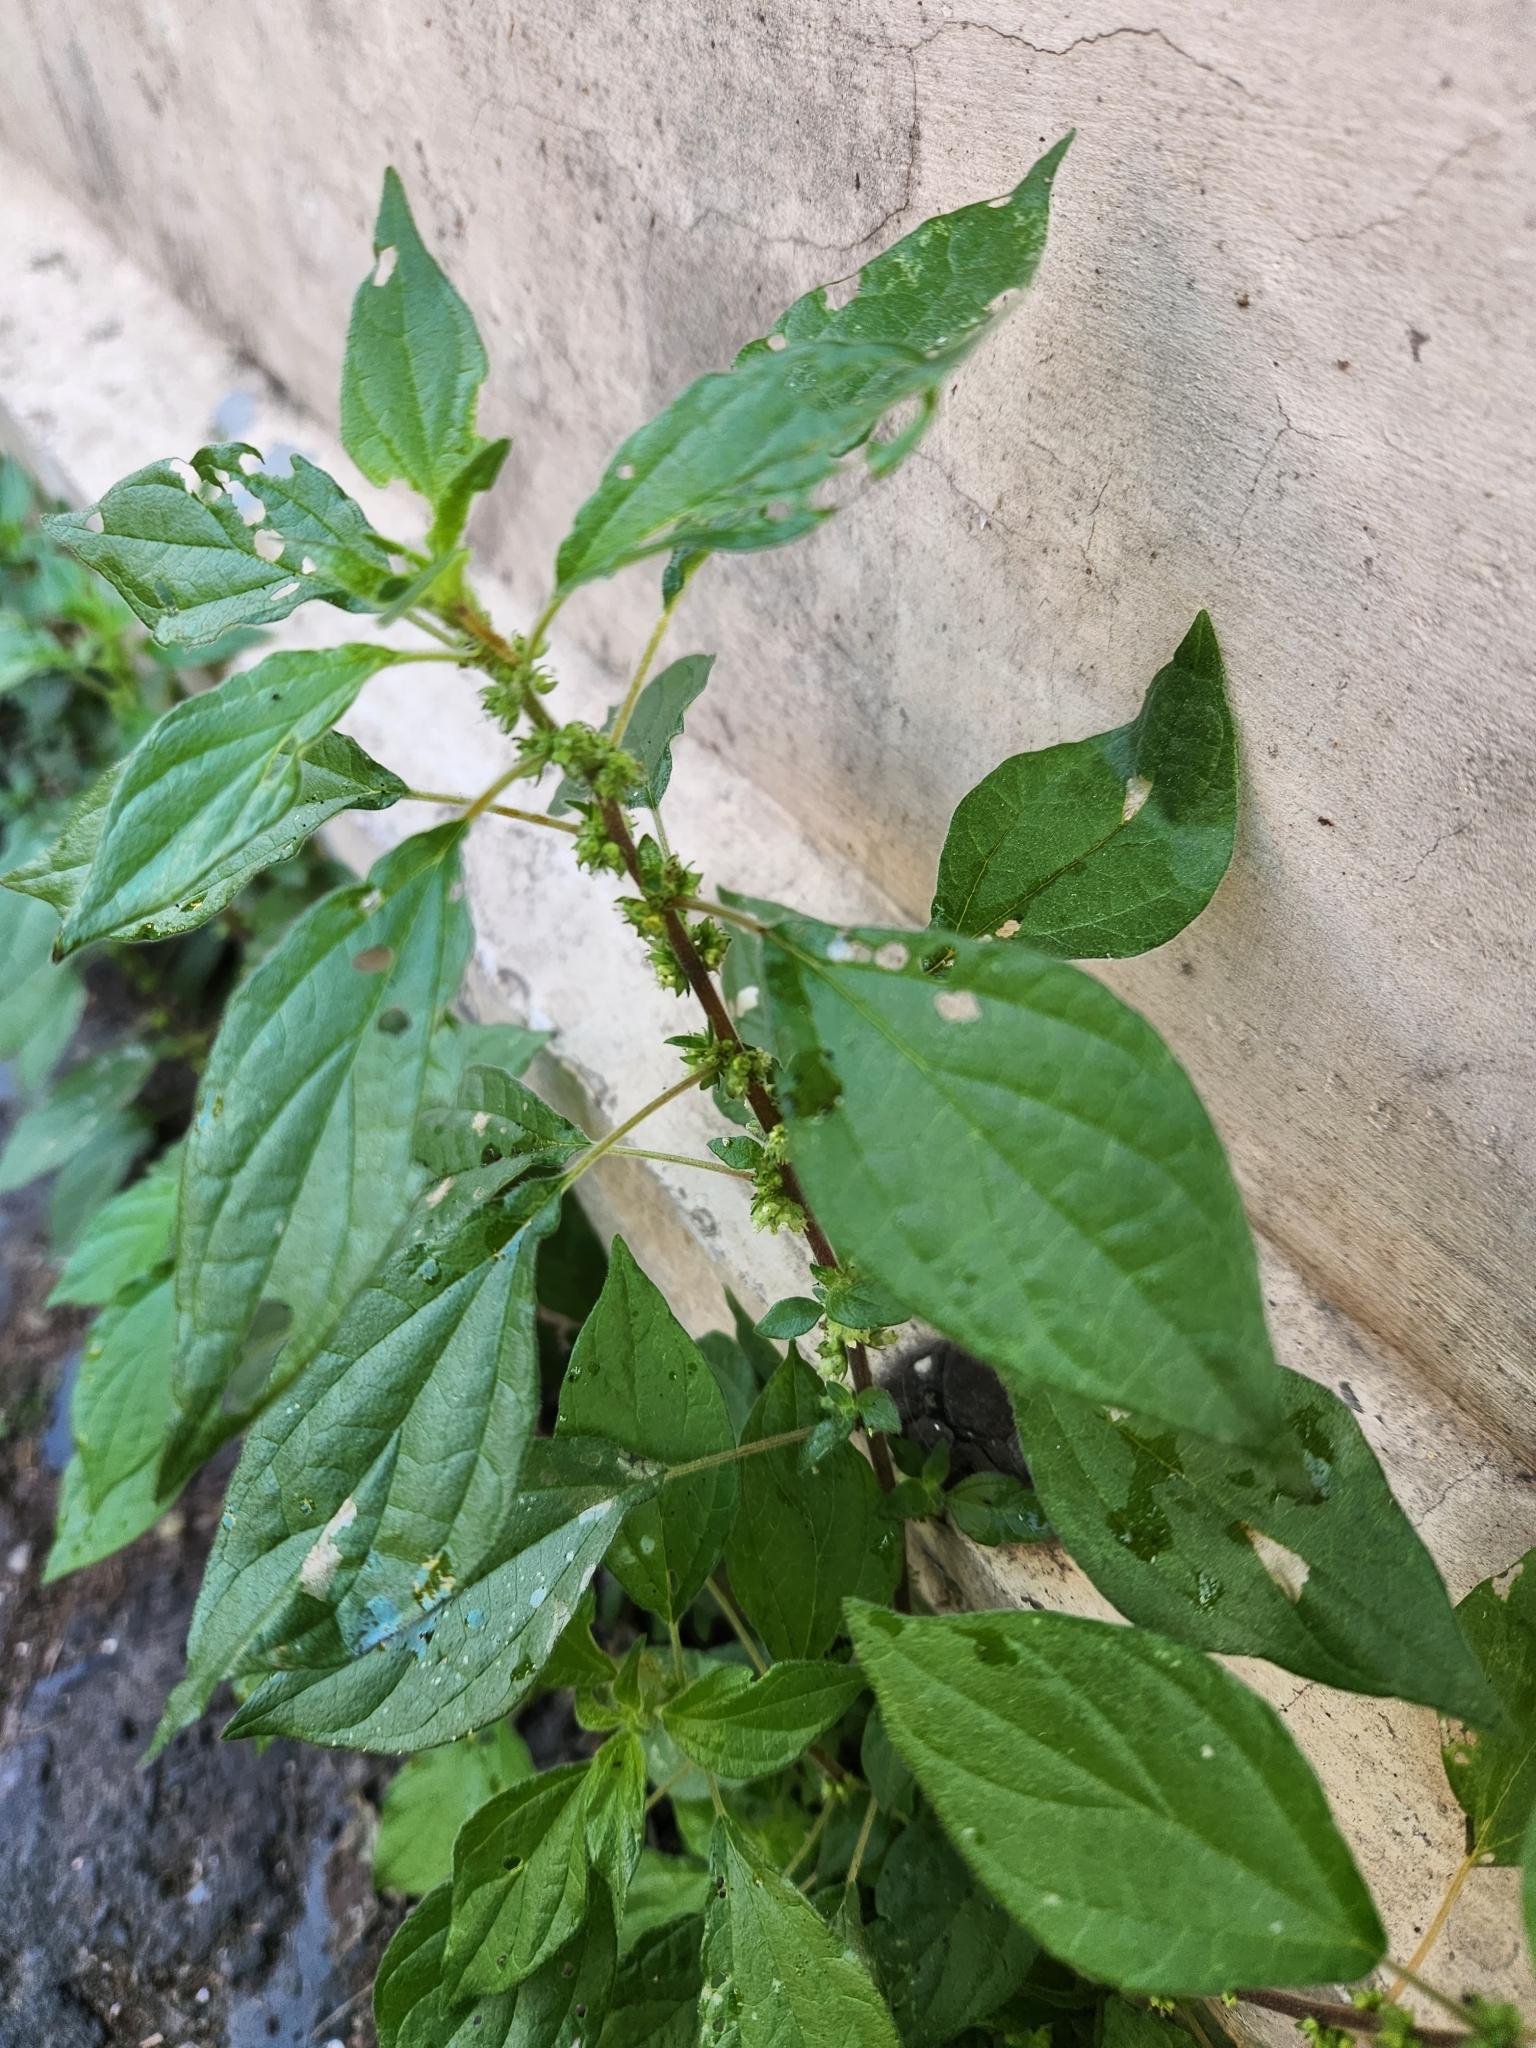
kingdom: Plantae
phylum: Tracheophyta
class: Magnoliopsida
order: Rosales
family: Urticaceae
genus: Parietaria
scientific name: Parietaria officinalis
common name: Eastern pellitory-of-the-wall
